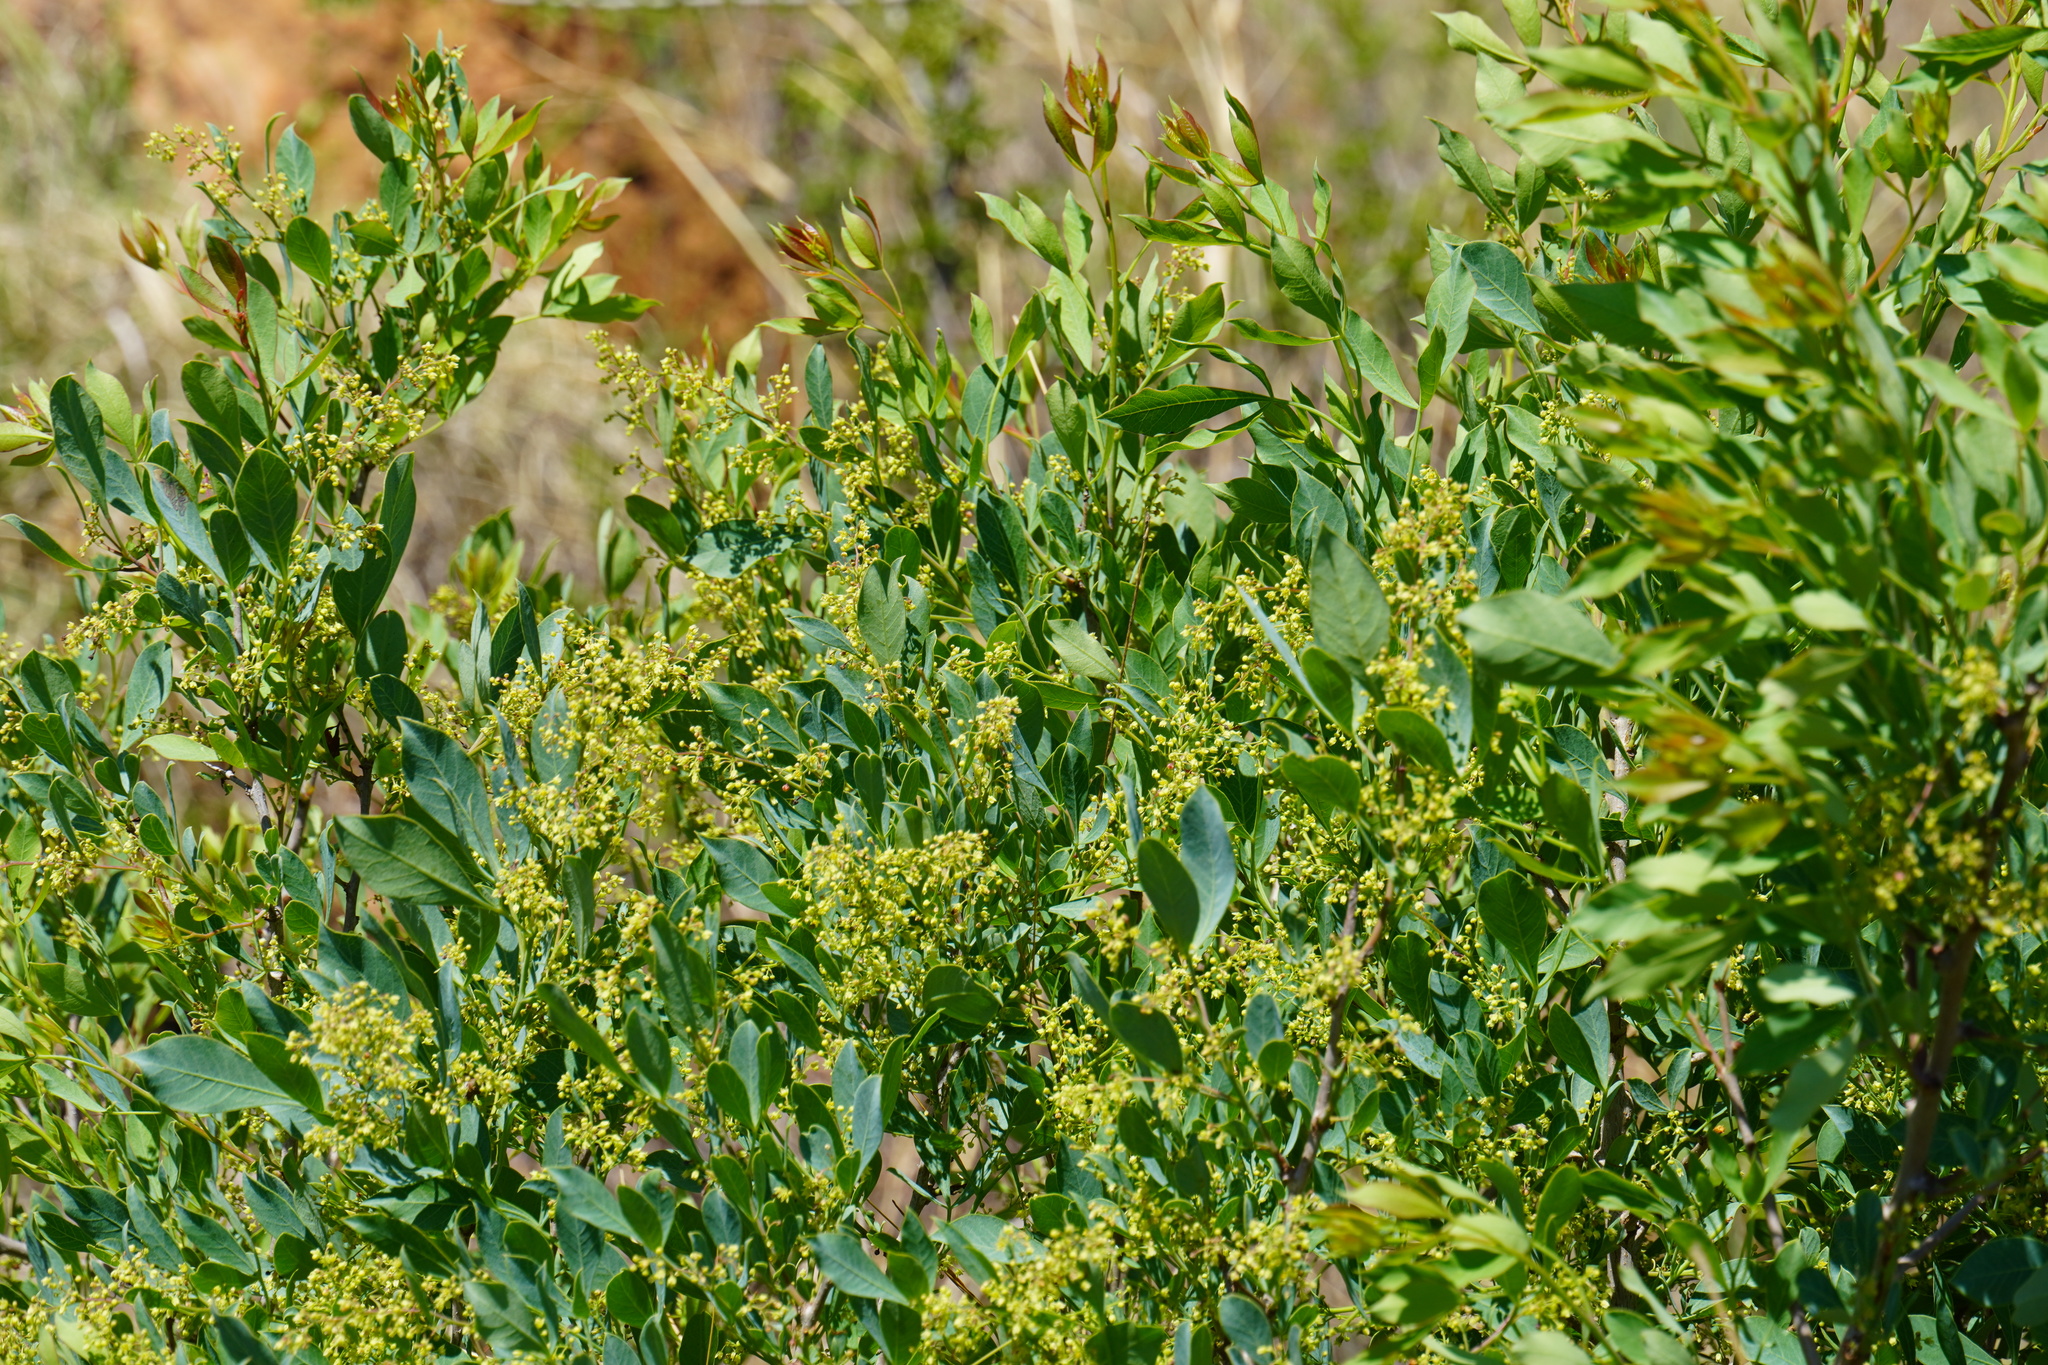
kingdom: Plantae
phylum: Tracheophyta
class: Magnoliopsida
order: Sapindales
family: Anacardiaceae
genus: Searsia
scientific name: Searsia zeyheri
